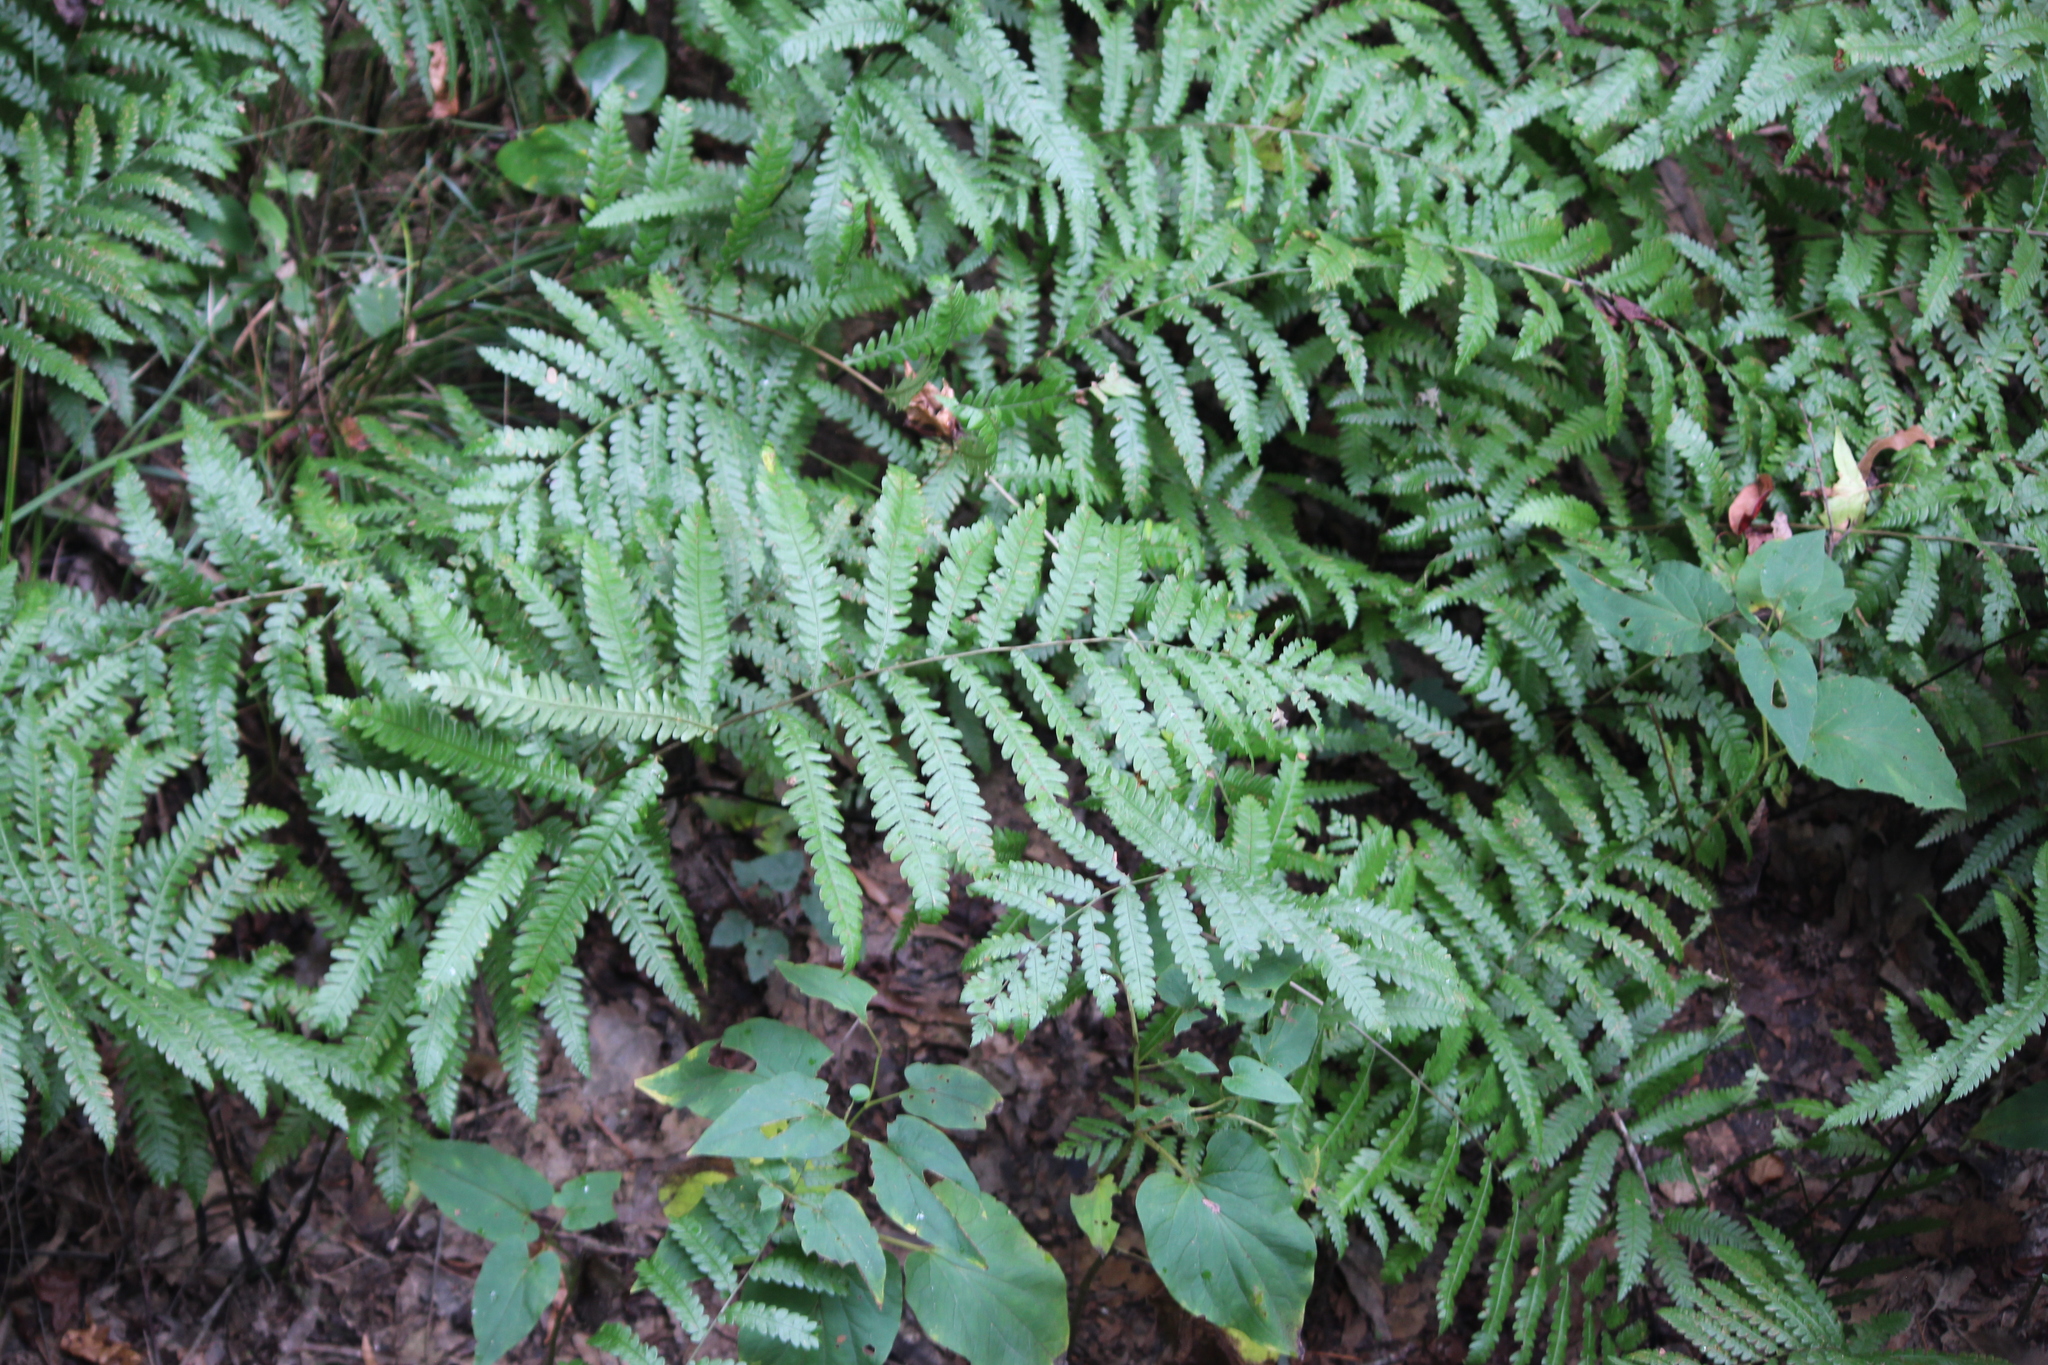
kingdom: Plantae
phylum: Tracheophyta
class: Polypodiopsida
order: Polypodiales
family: Blechnaceae
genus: Anchistea
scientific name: Anchistea virginica
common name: Virginia chain fern
